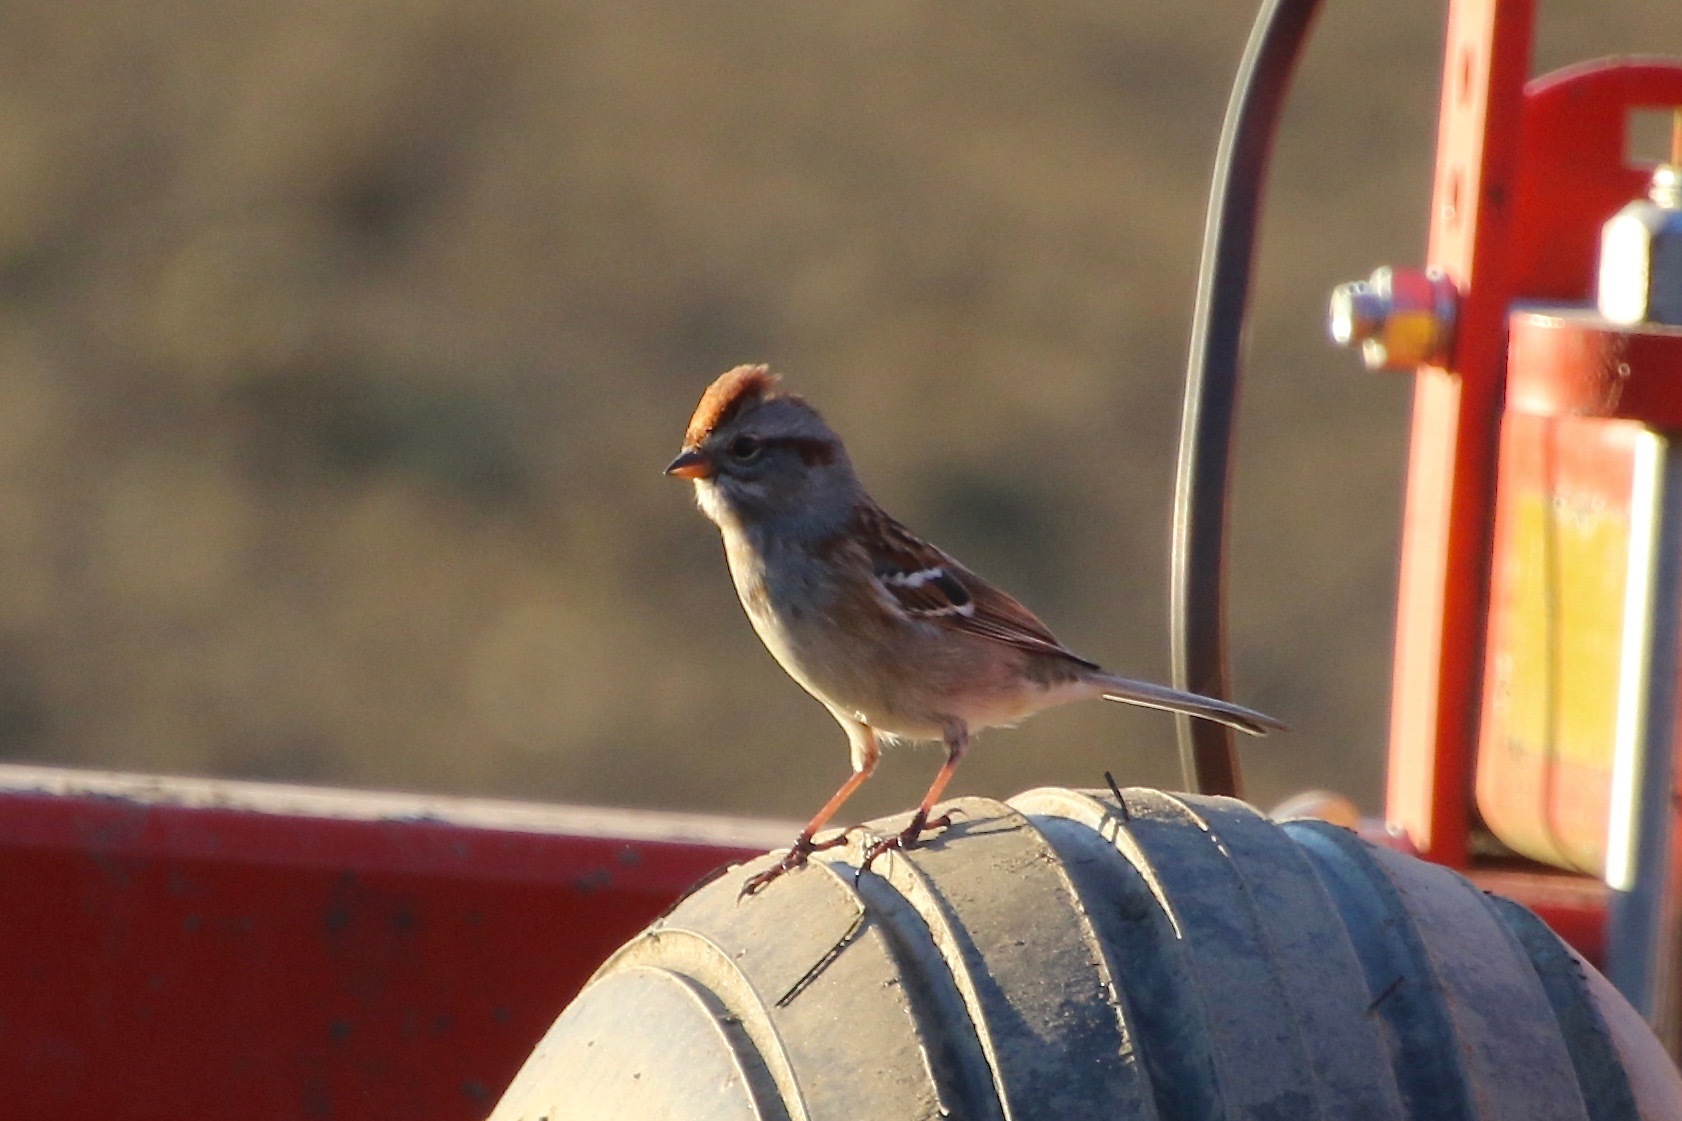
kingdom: Animalia
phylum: Chordata
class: Aves
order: Passeriformes
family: Passerellidae
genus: Spizelloides
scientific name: Spizelloides arborea
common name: American tree sparrow
